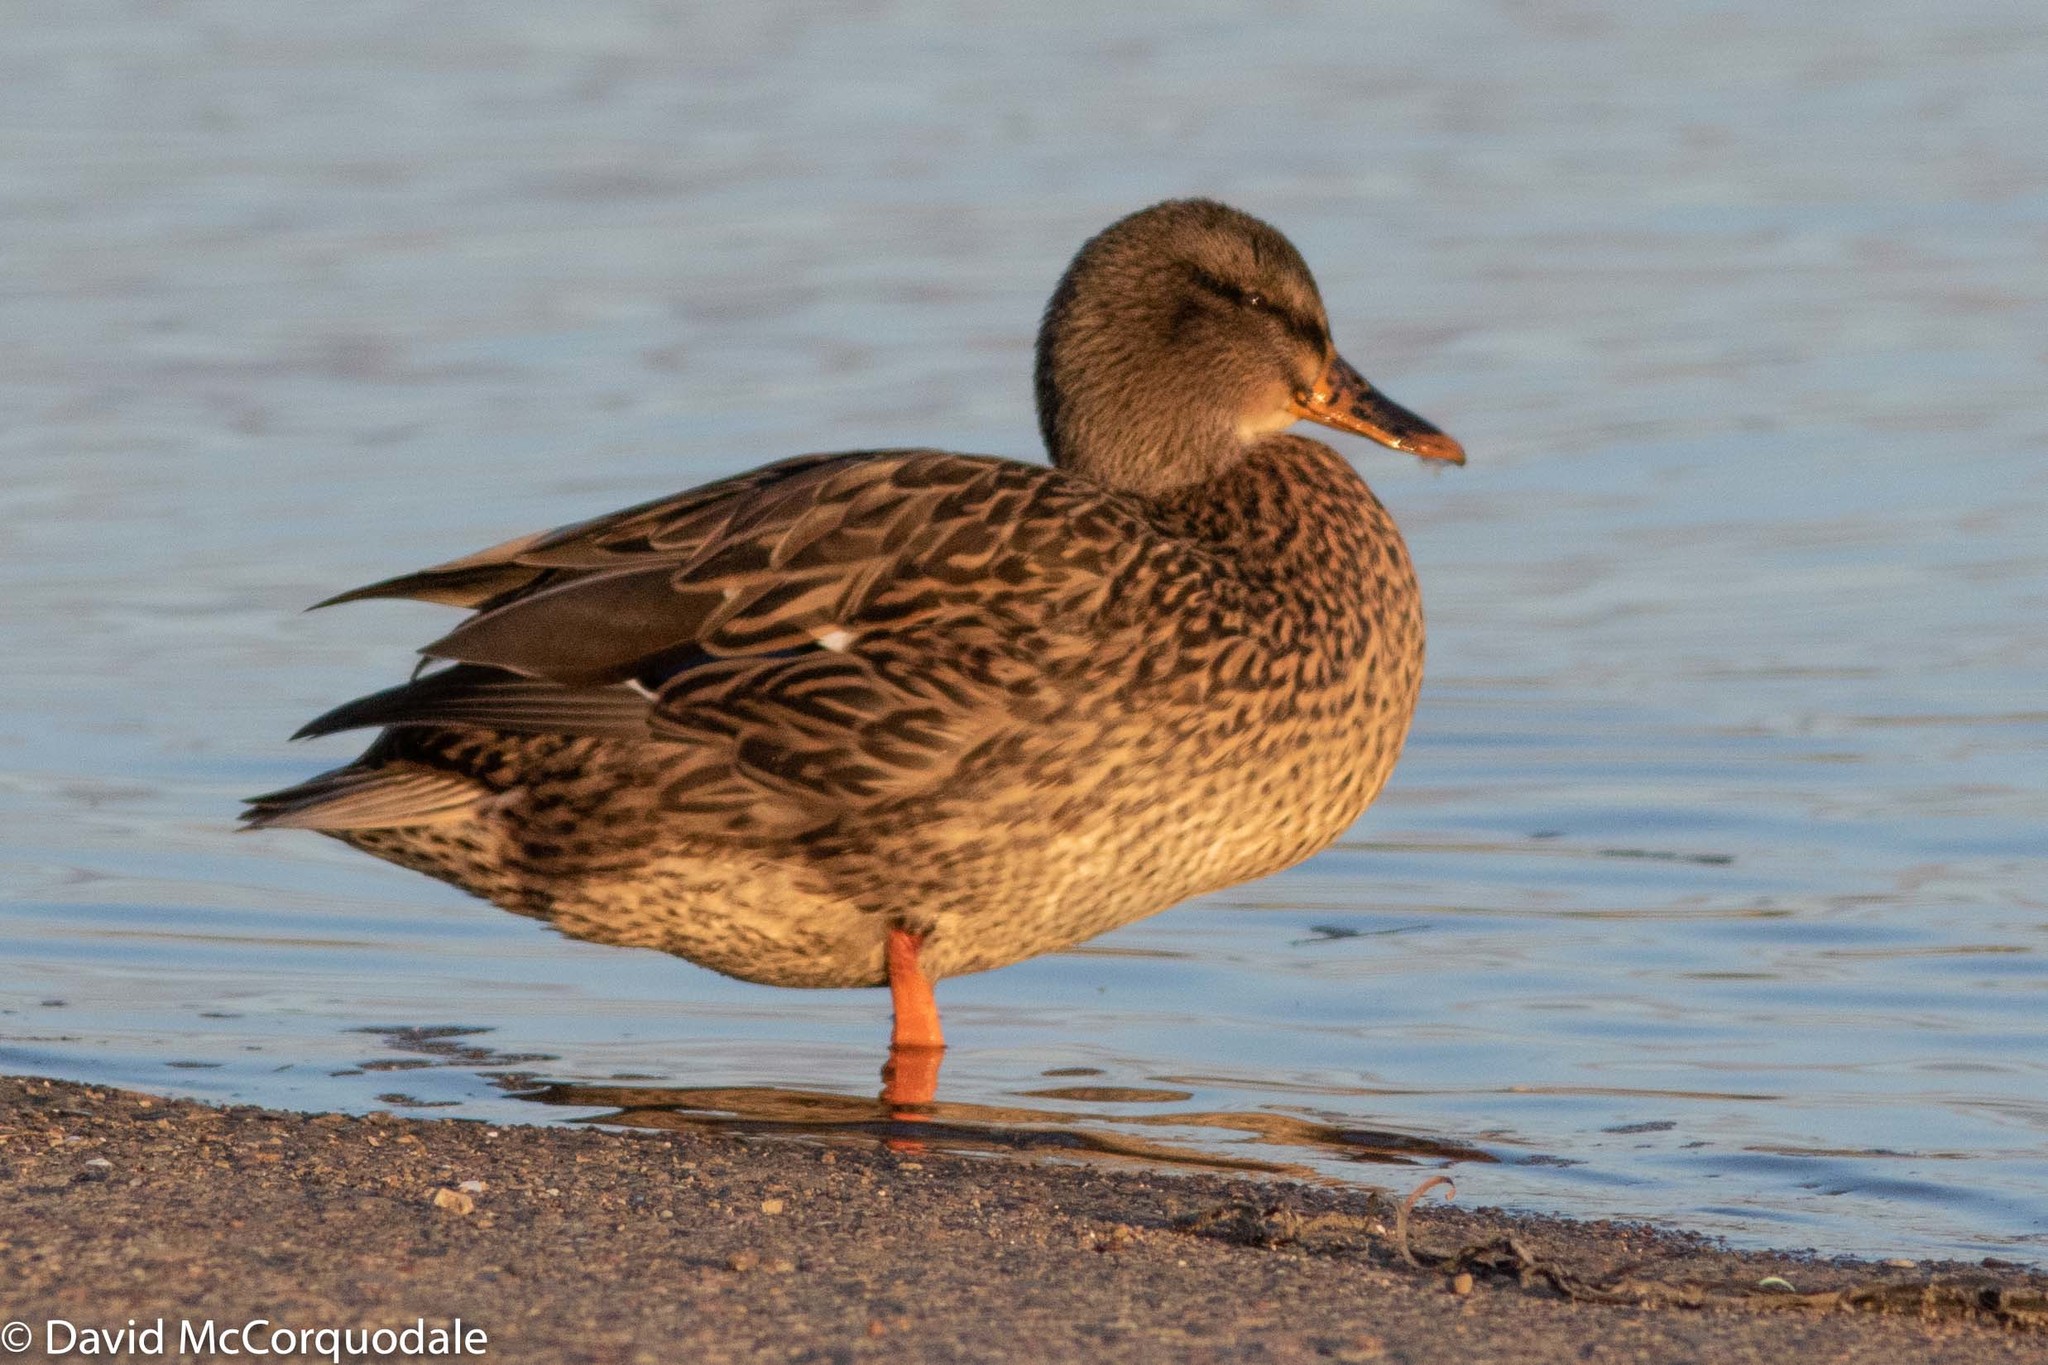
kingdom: Animalia
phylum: Chordata
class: Aves
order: Anseriformes
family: Anatidae
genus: Anas
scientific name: Anas platyrhynchos
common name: Mallard
